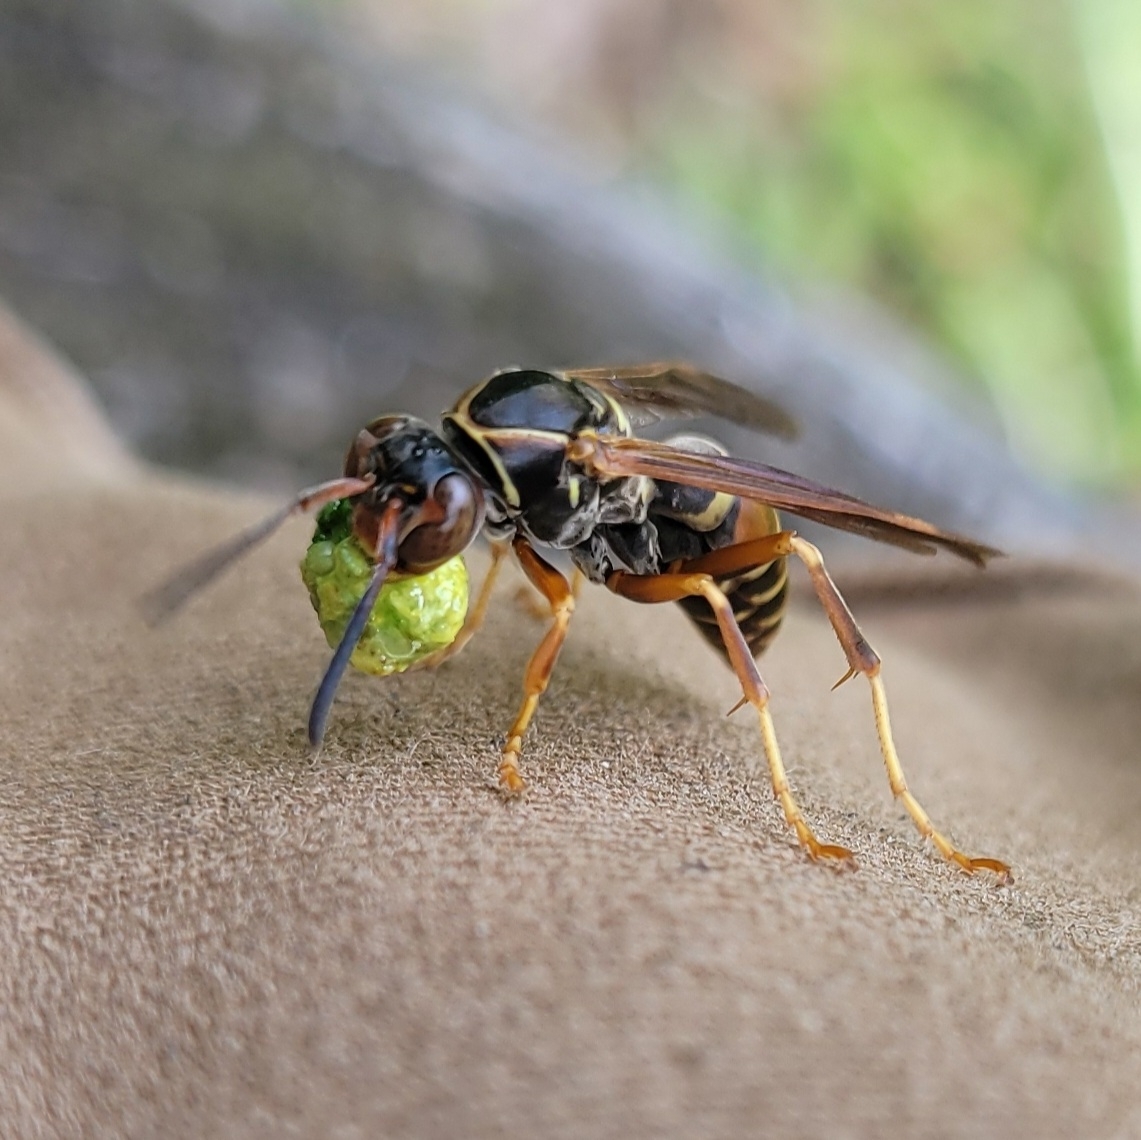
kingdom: Animalia
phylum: Arthropoda
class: Insecta
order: Hymenoptera
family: Eumenidae
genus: Polistes
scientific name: Polistes fuscatus
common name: Dark paper wasp
